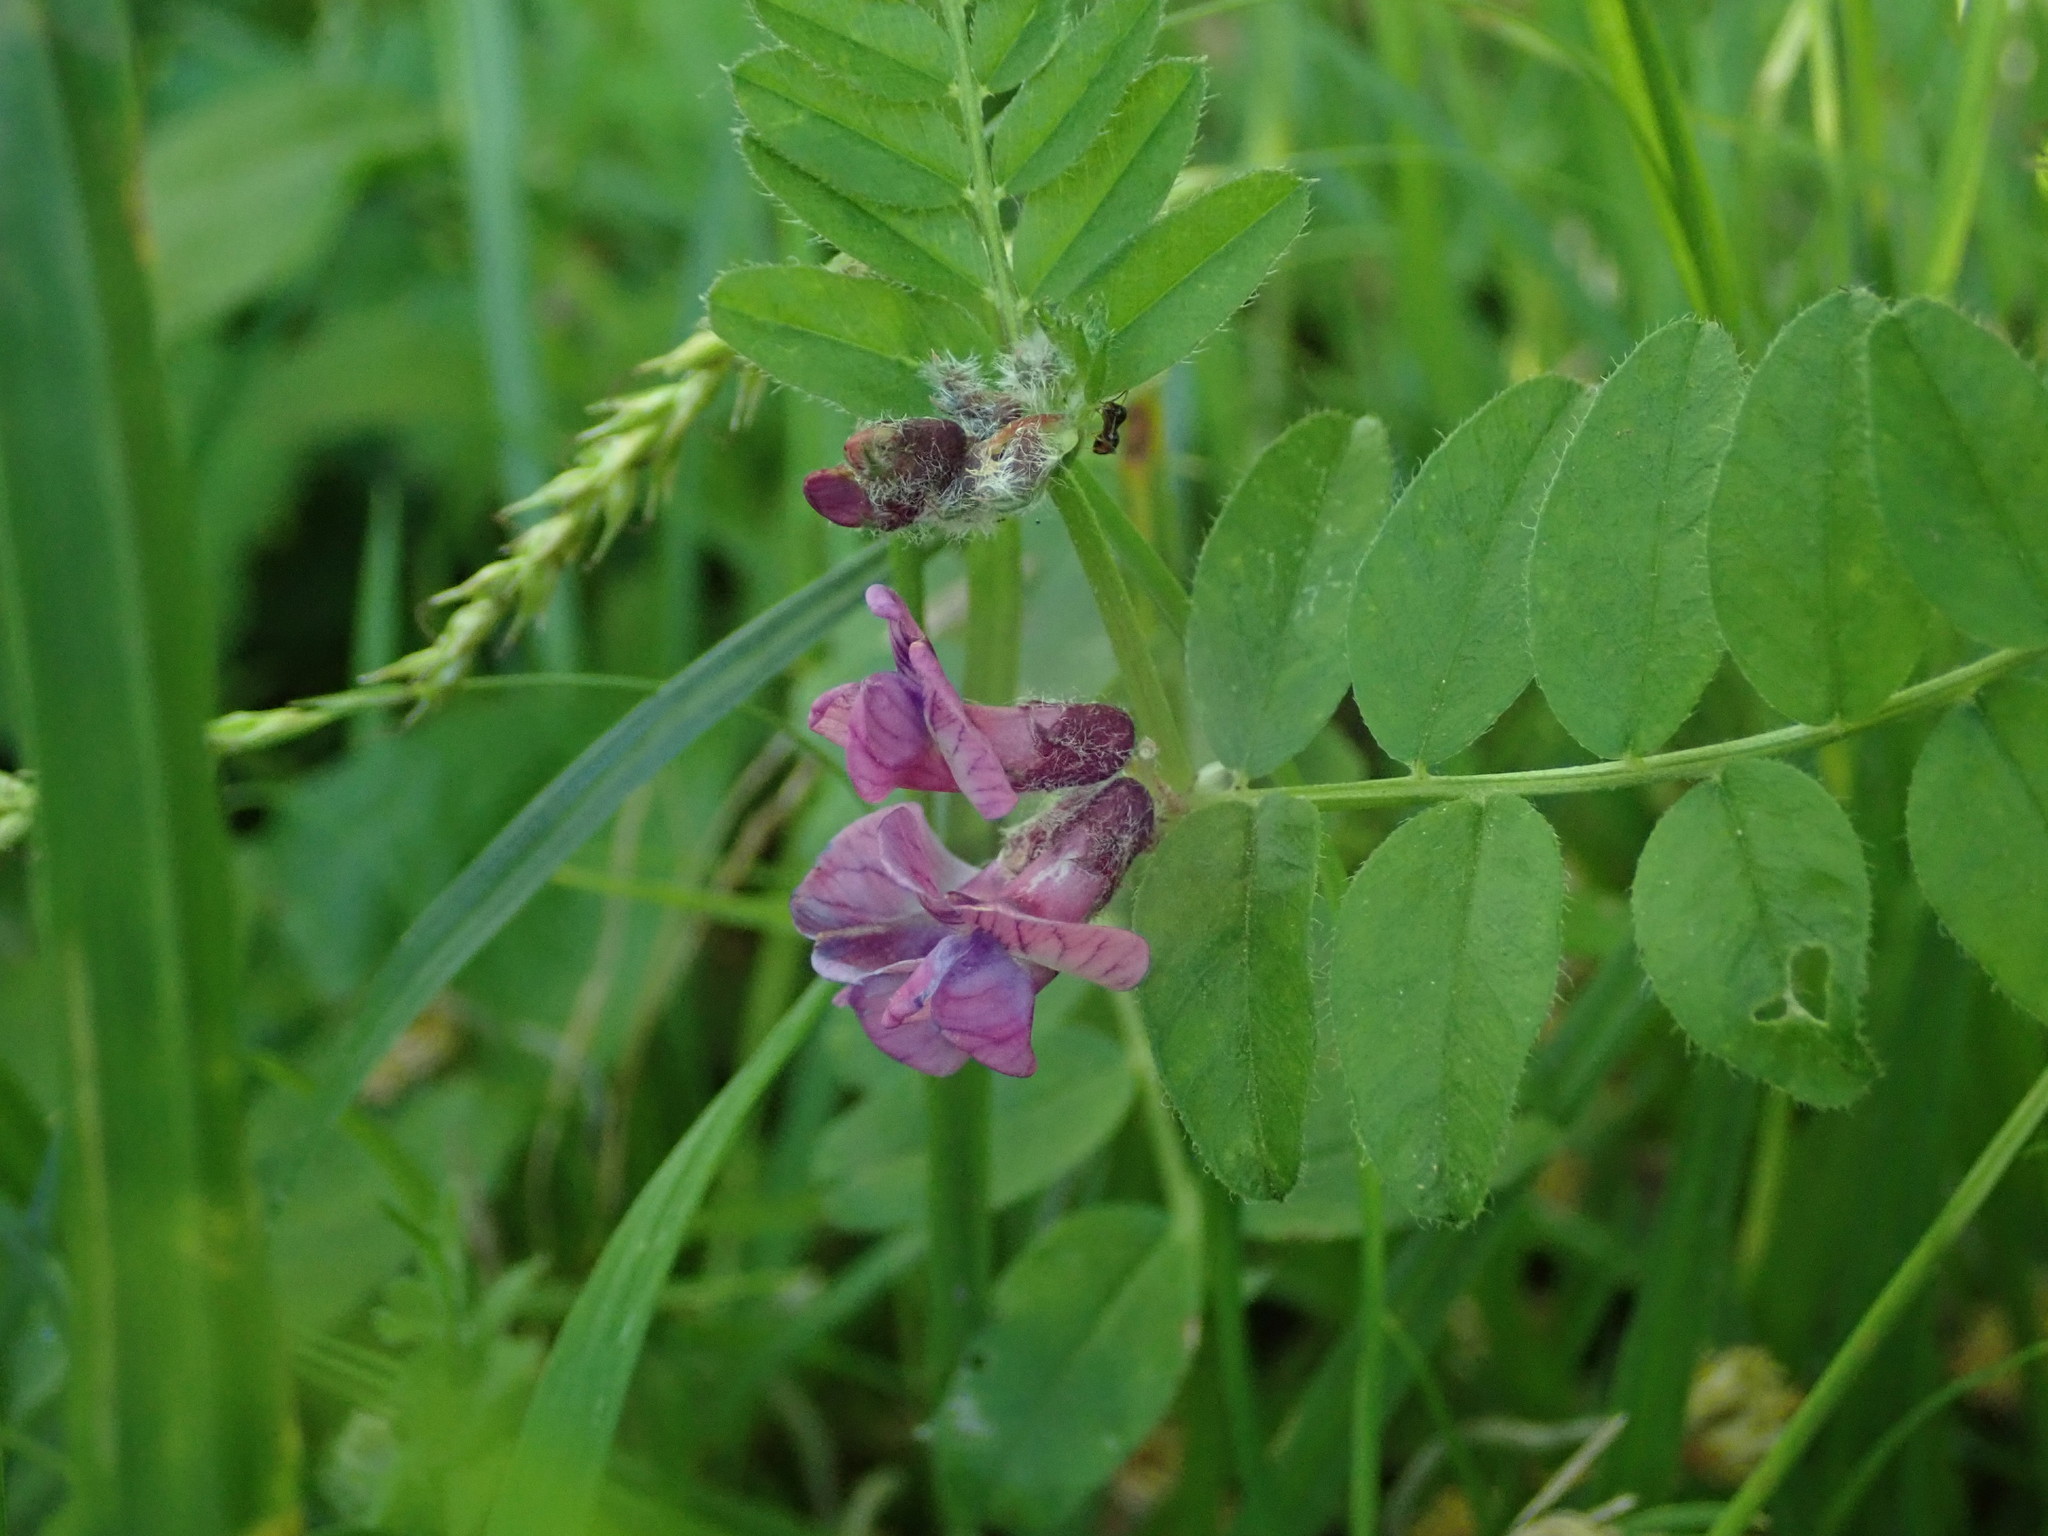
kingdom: Plantae
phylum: Tracheophyta
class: Magnoliopsida
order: Fabales
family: Fabaceae
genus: Vicia
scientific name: Vicia sepium
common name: Bush vetch
